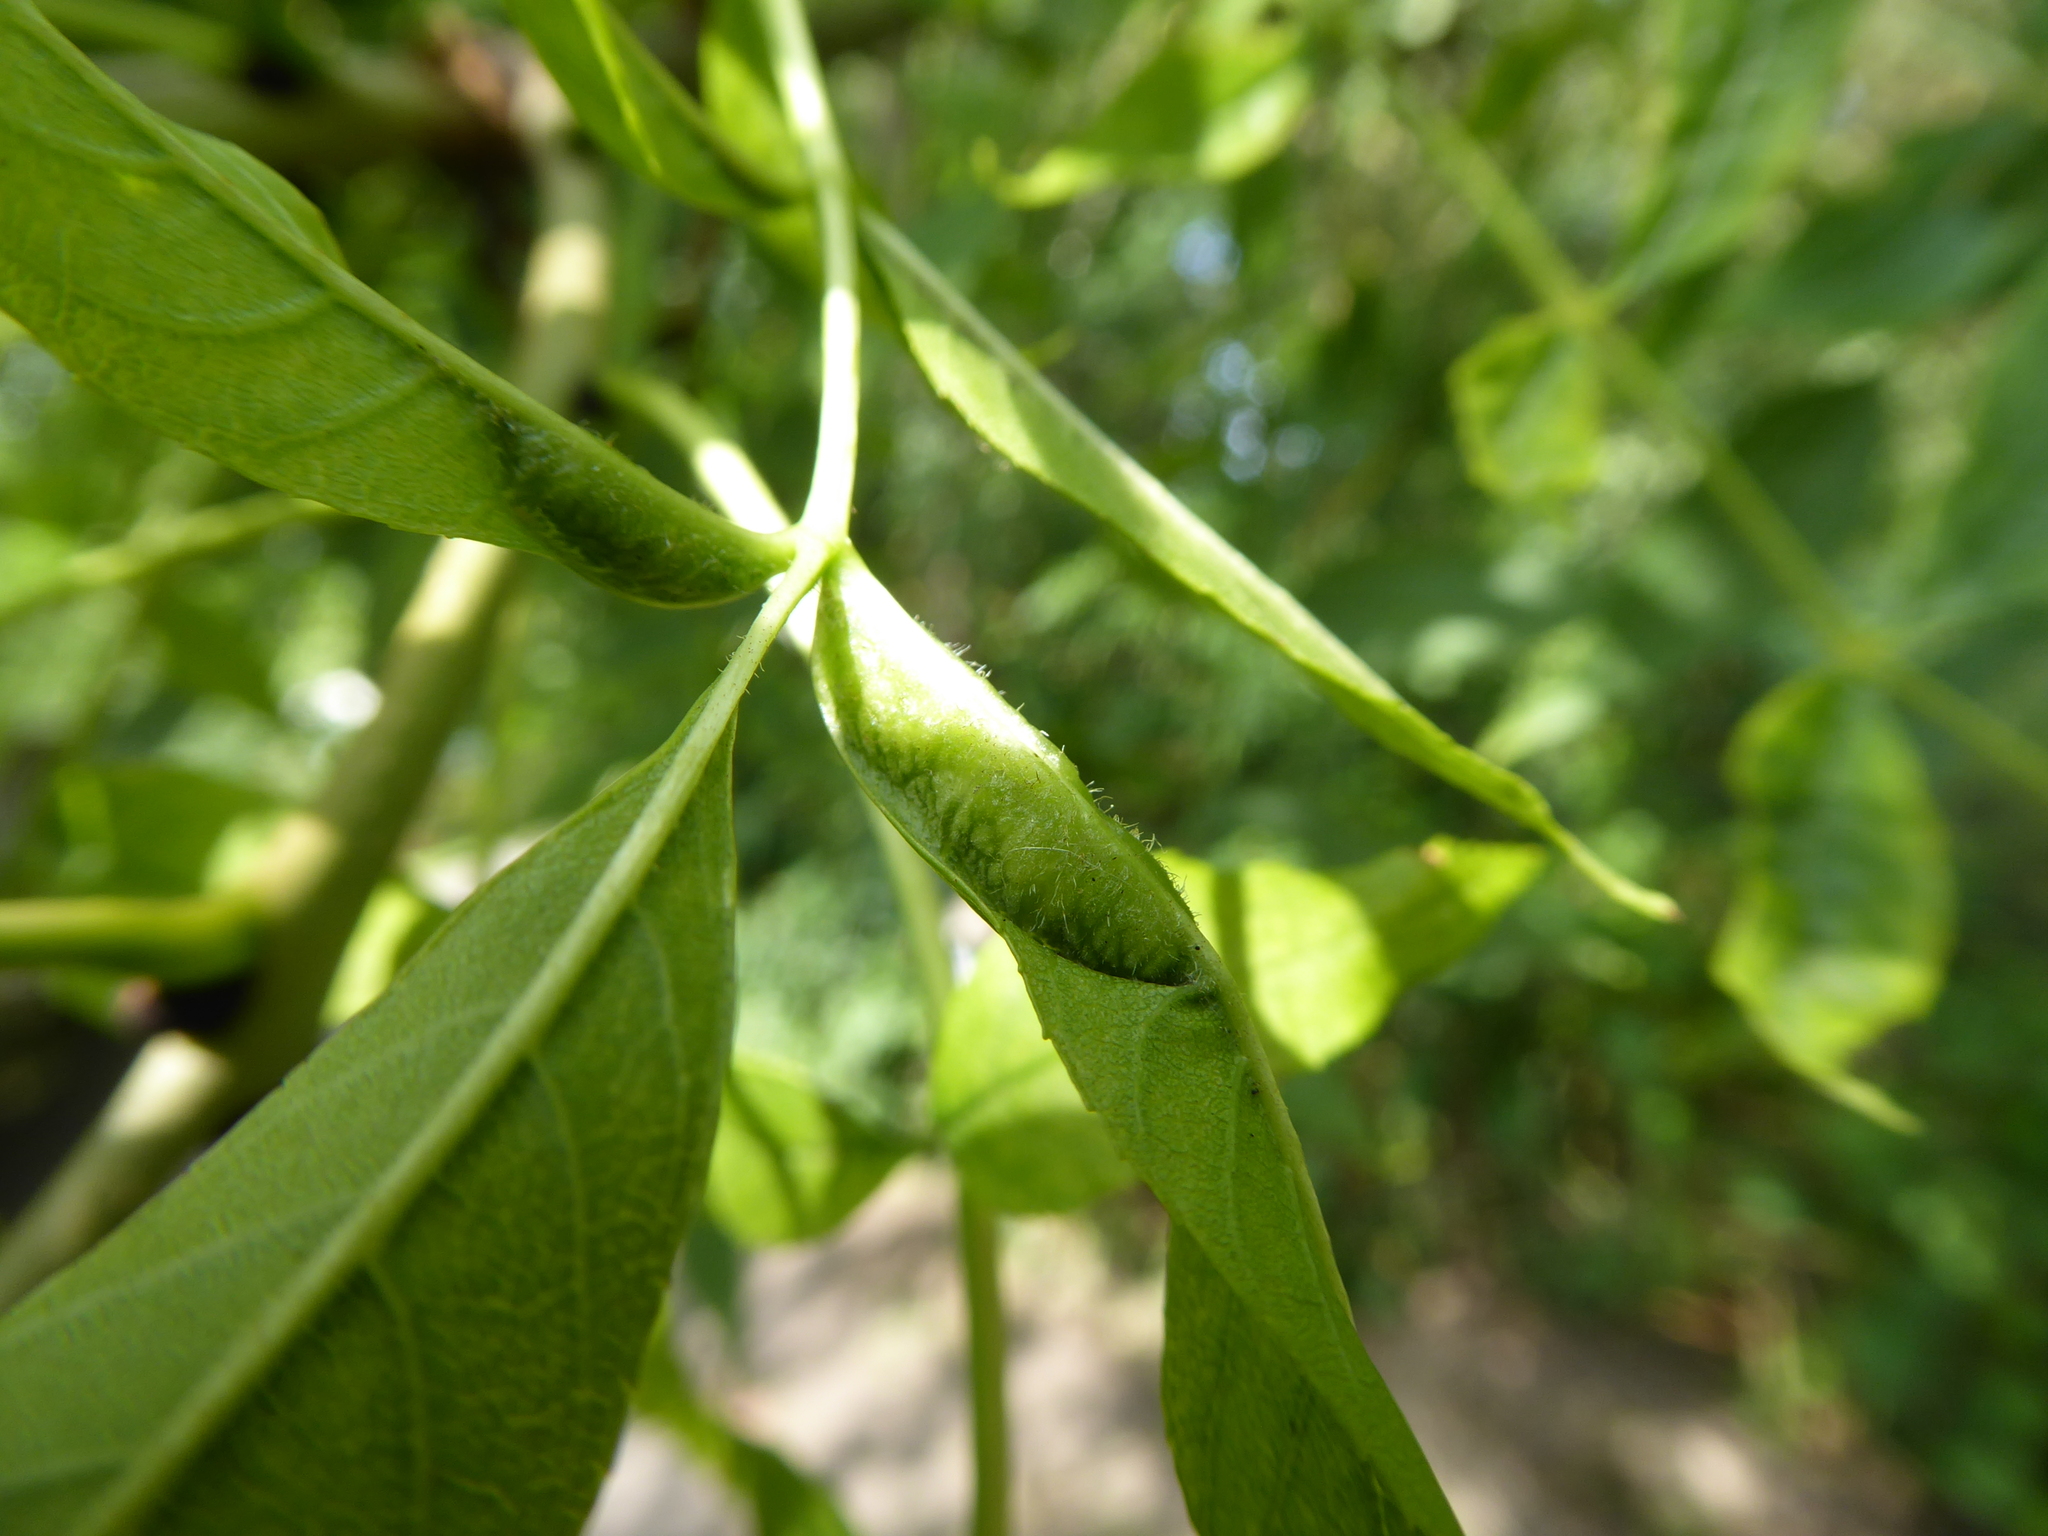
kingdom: Animalia
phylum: Arthropoda
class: Insecta
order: Diptera
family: Cecidomyiidae
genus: Dasineura
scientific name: Dasineura fraxini
